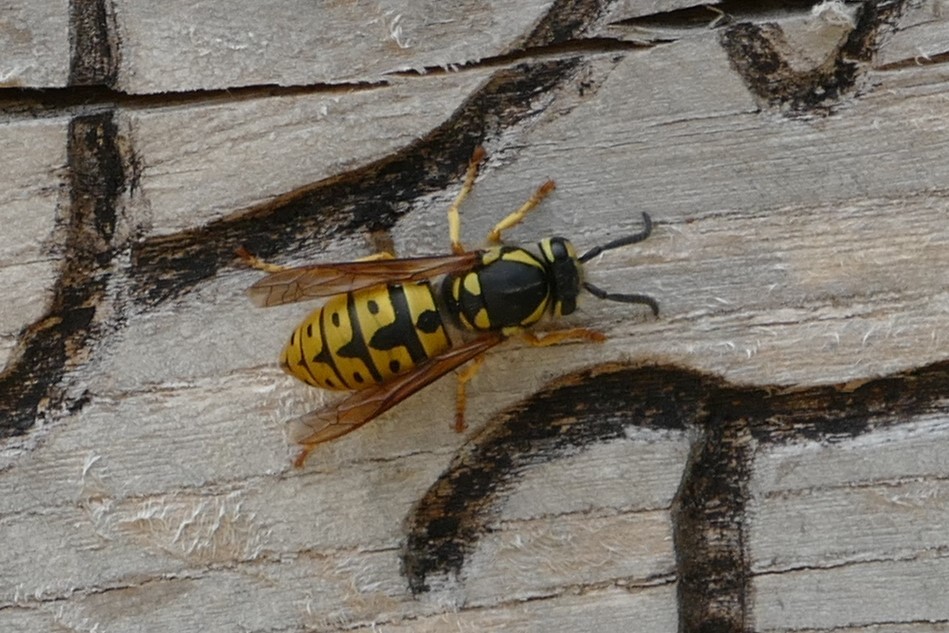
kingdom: Animalia
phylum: Arthropoda
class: Insecta
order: Hymenoptera
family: Vespidae
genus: Vespula
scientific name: Vespula germanica
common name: German wasp
